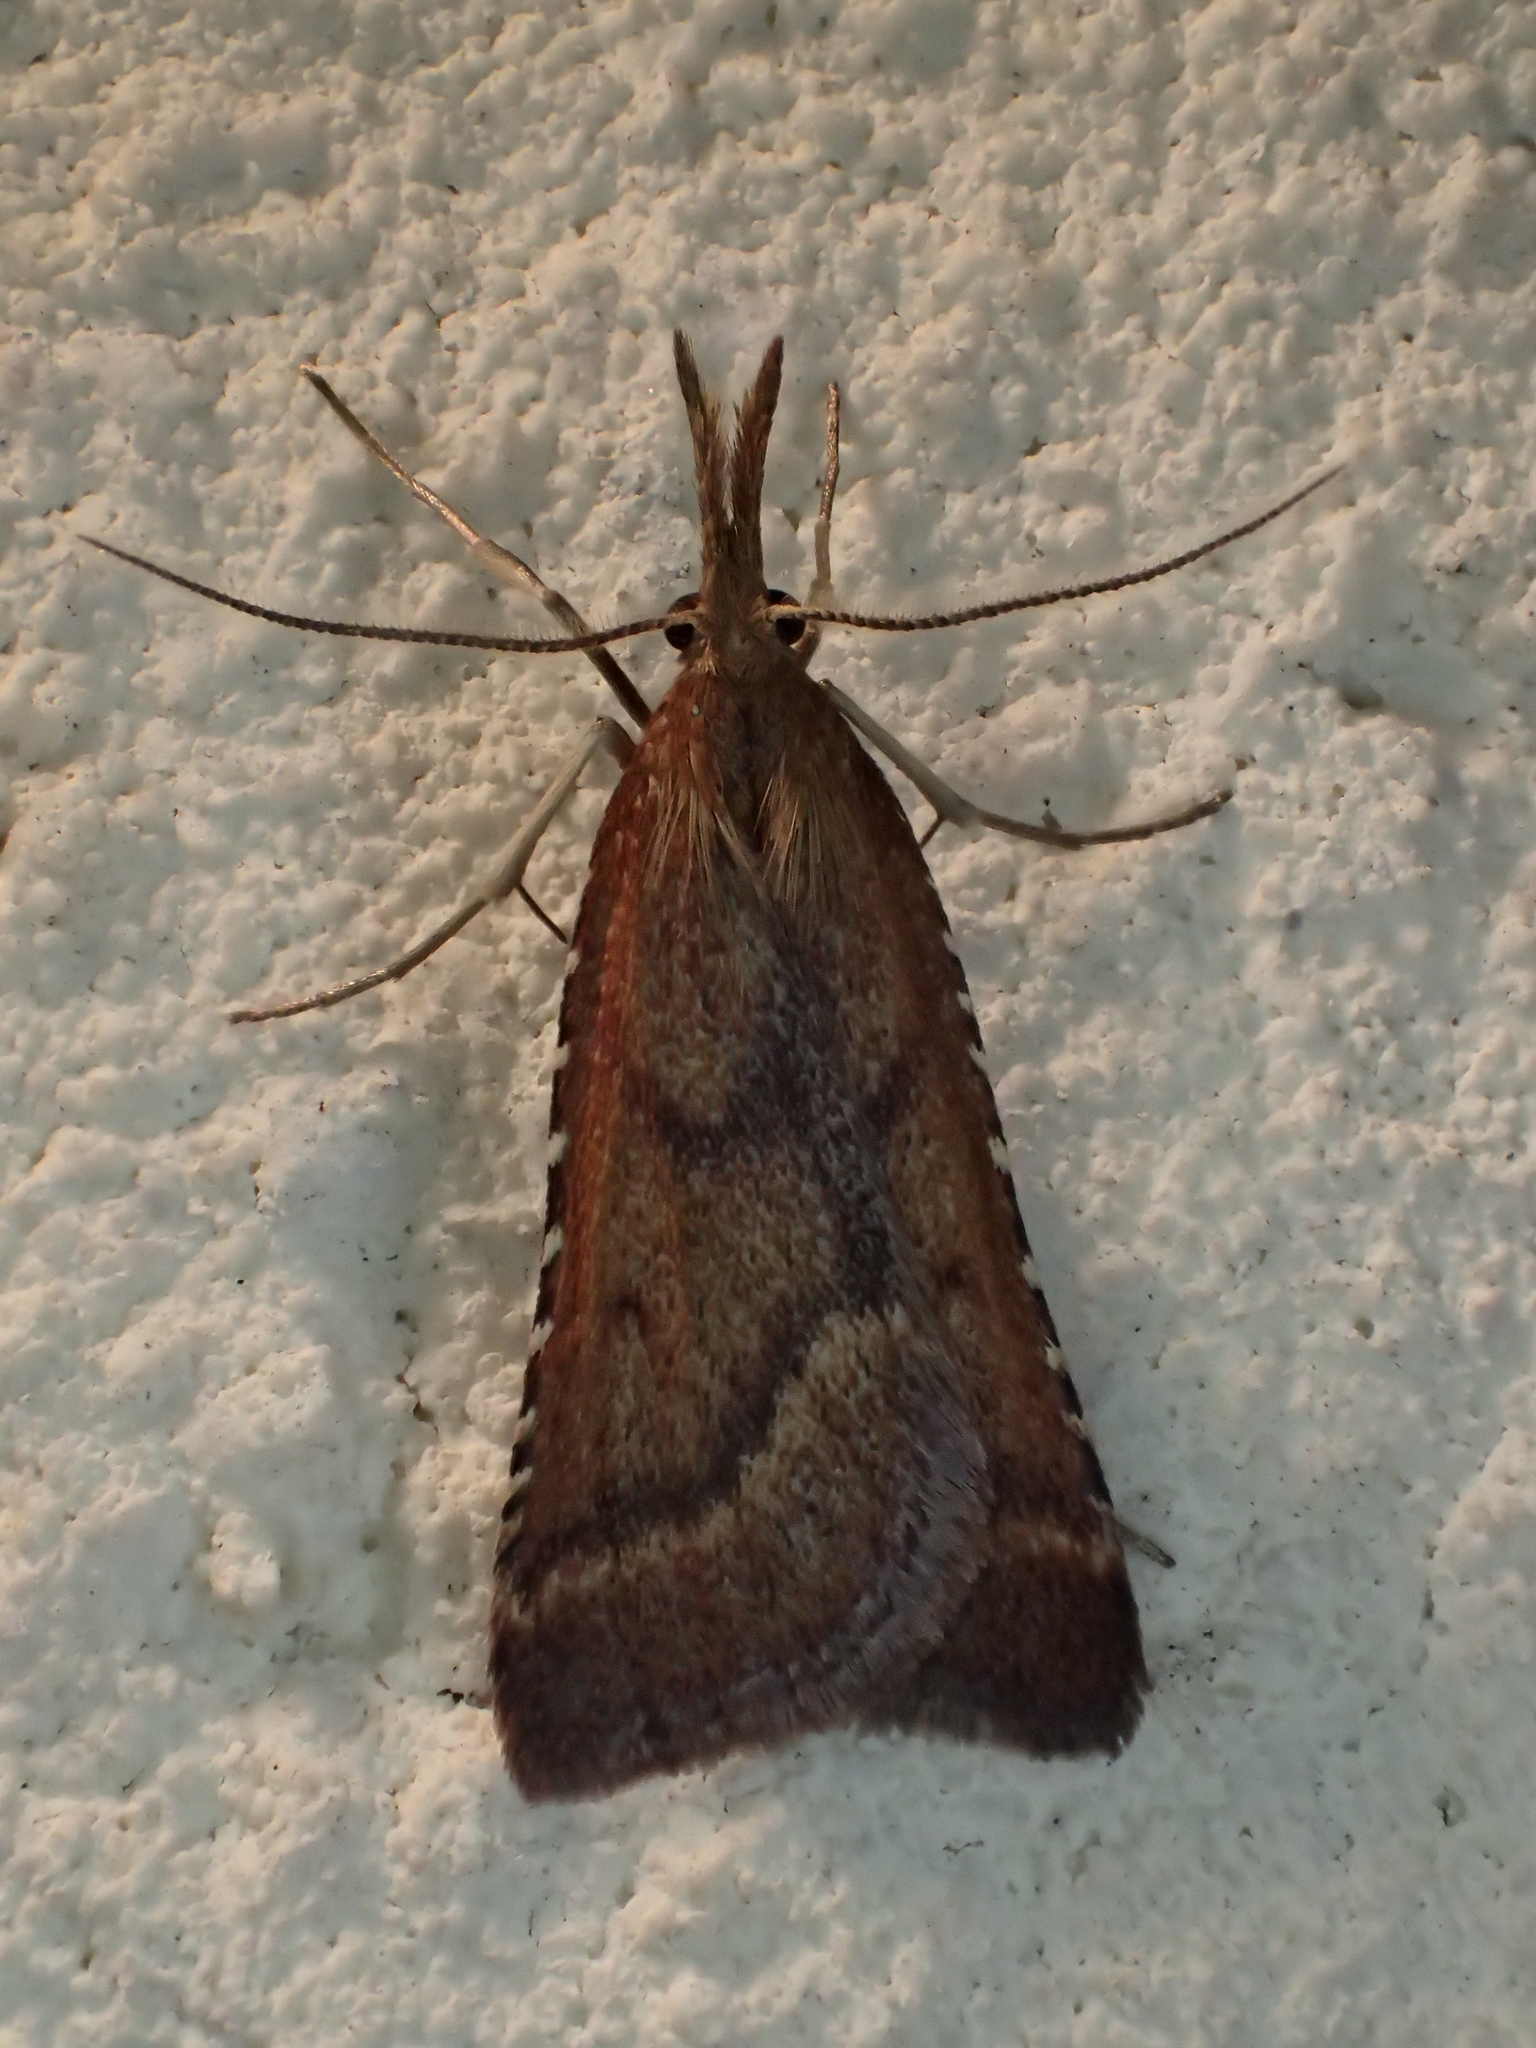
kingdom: Animalia
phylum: Arthropoda
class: Insecta
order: Lepidoptera
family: Pyralidae
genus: Synaphe
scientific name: Synaphe punctalis
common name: Long-legged tabby
